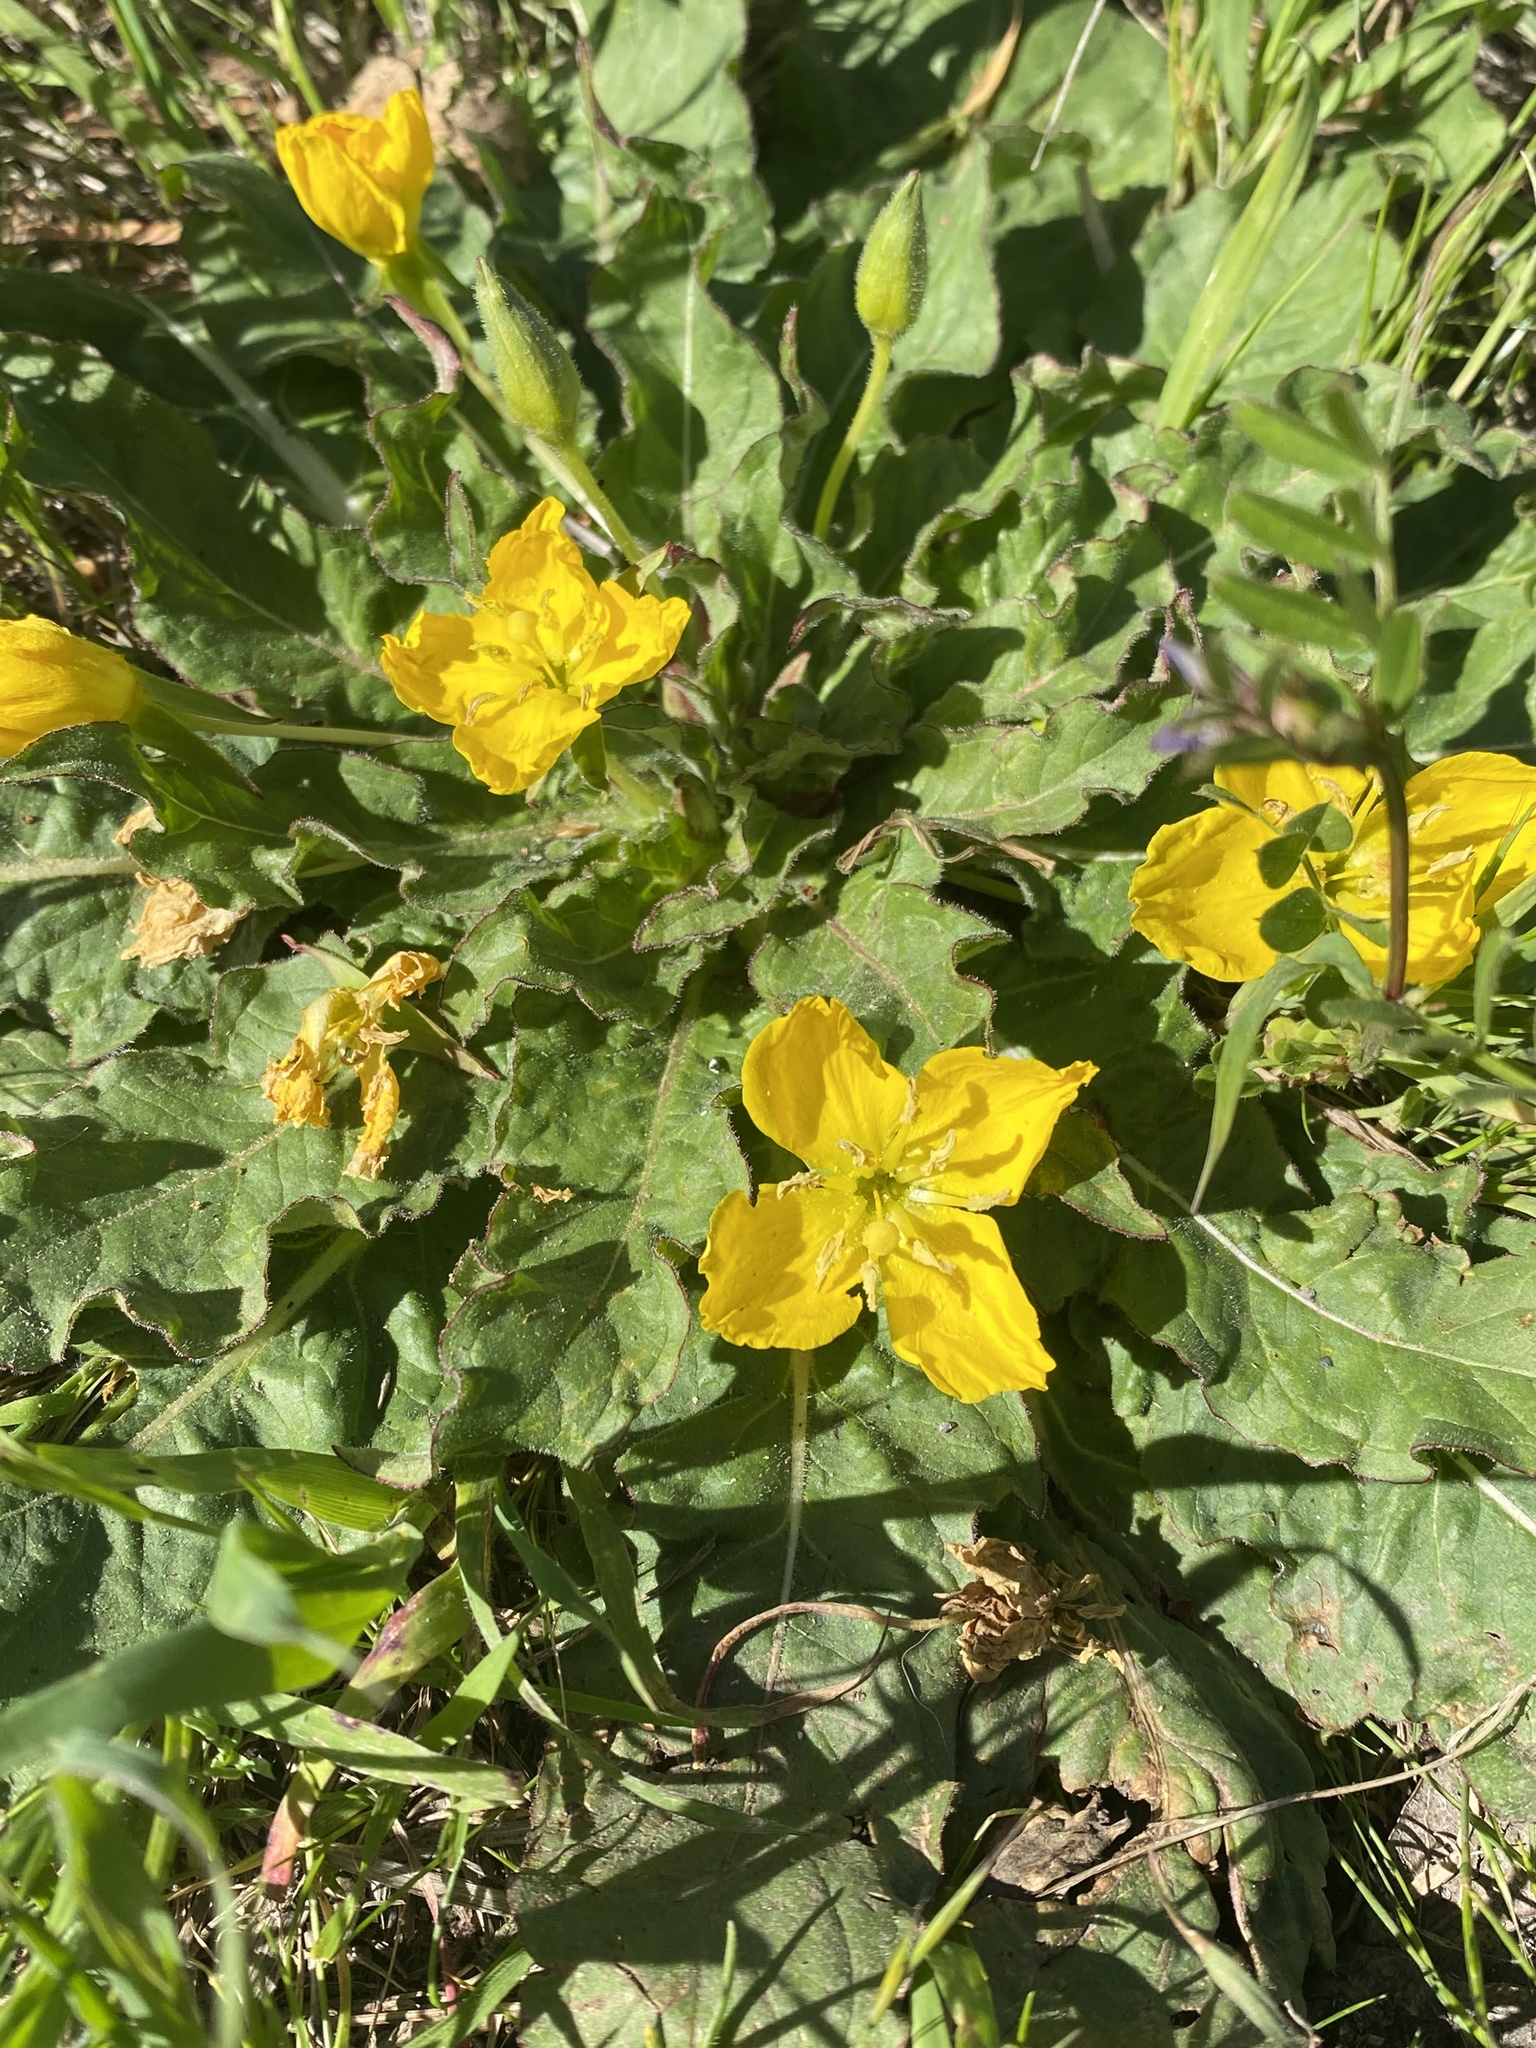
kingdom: Plantae
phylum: Tracheophyta
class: Magnoliopsida
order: Myrtales
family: Onagraceae
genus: Taraxia
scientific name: Taraxia ovata
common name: Goldeneggs
